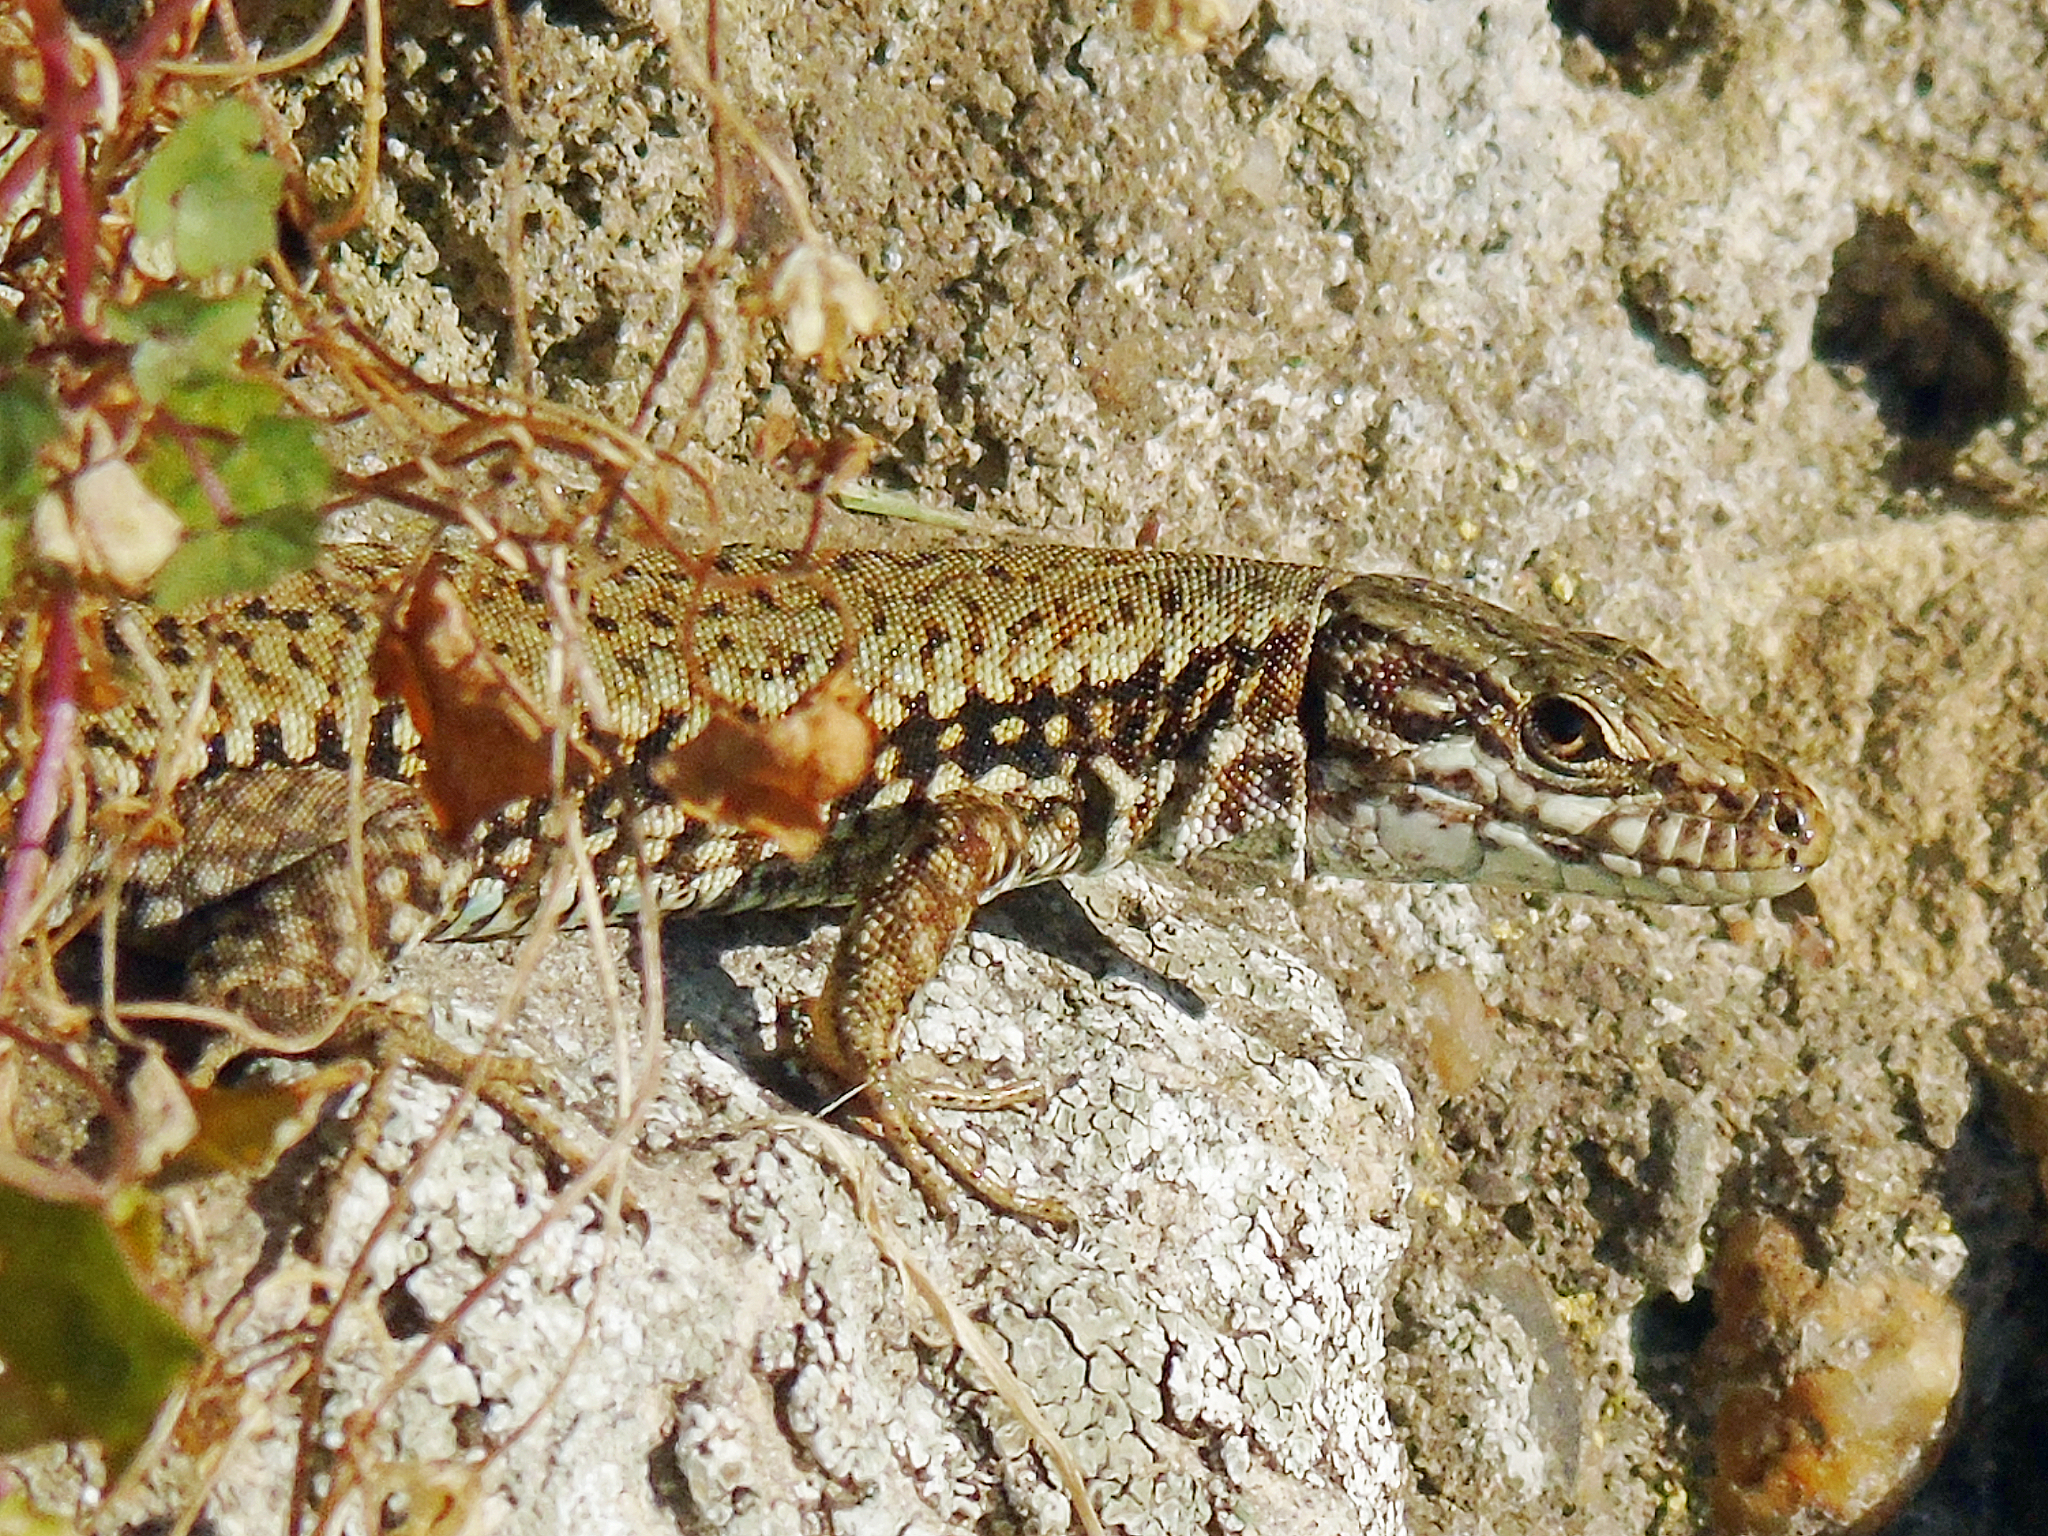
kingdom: Animalia
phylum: Chordata
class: Squamata
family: Lacertidae
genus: Podarcis
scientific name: Podarcis muralis
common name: Common wall lizard
